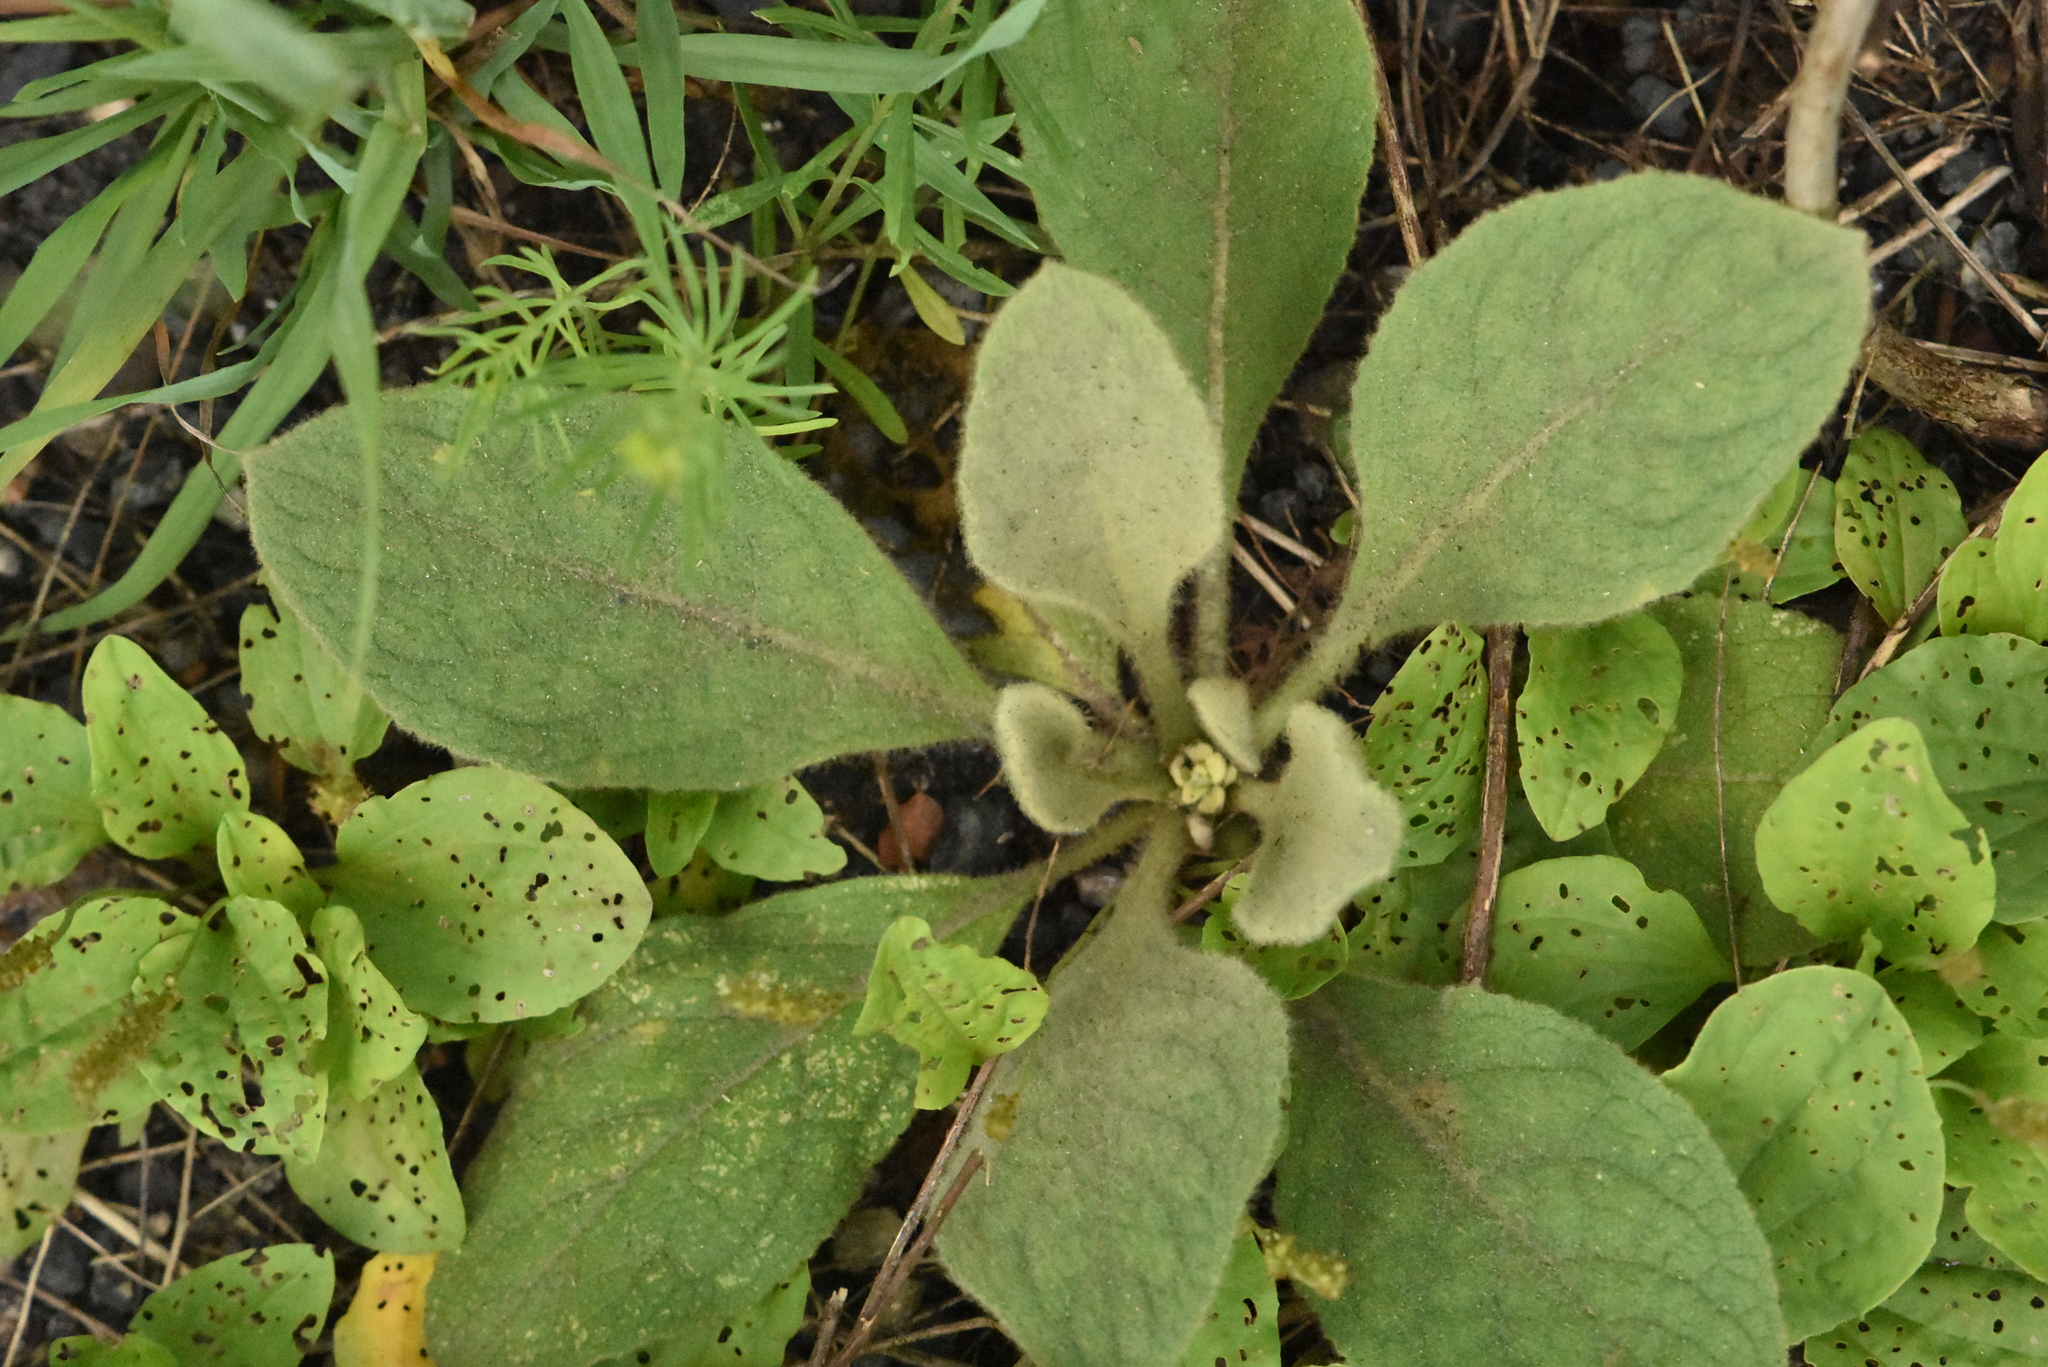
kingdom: Plantae
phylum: Tracheophyta
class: Magnoliopsida
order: Lamiales
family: Scrophulariaceae
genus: Verbascum
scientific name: Verbascum thapsus
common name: Common mullein
